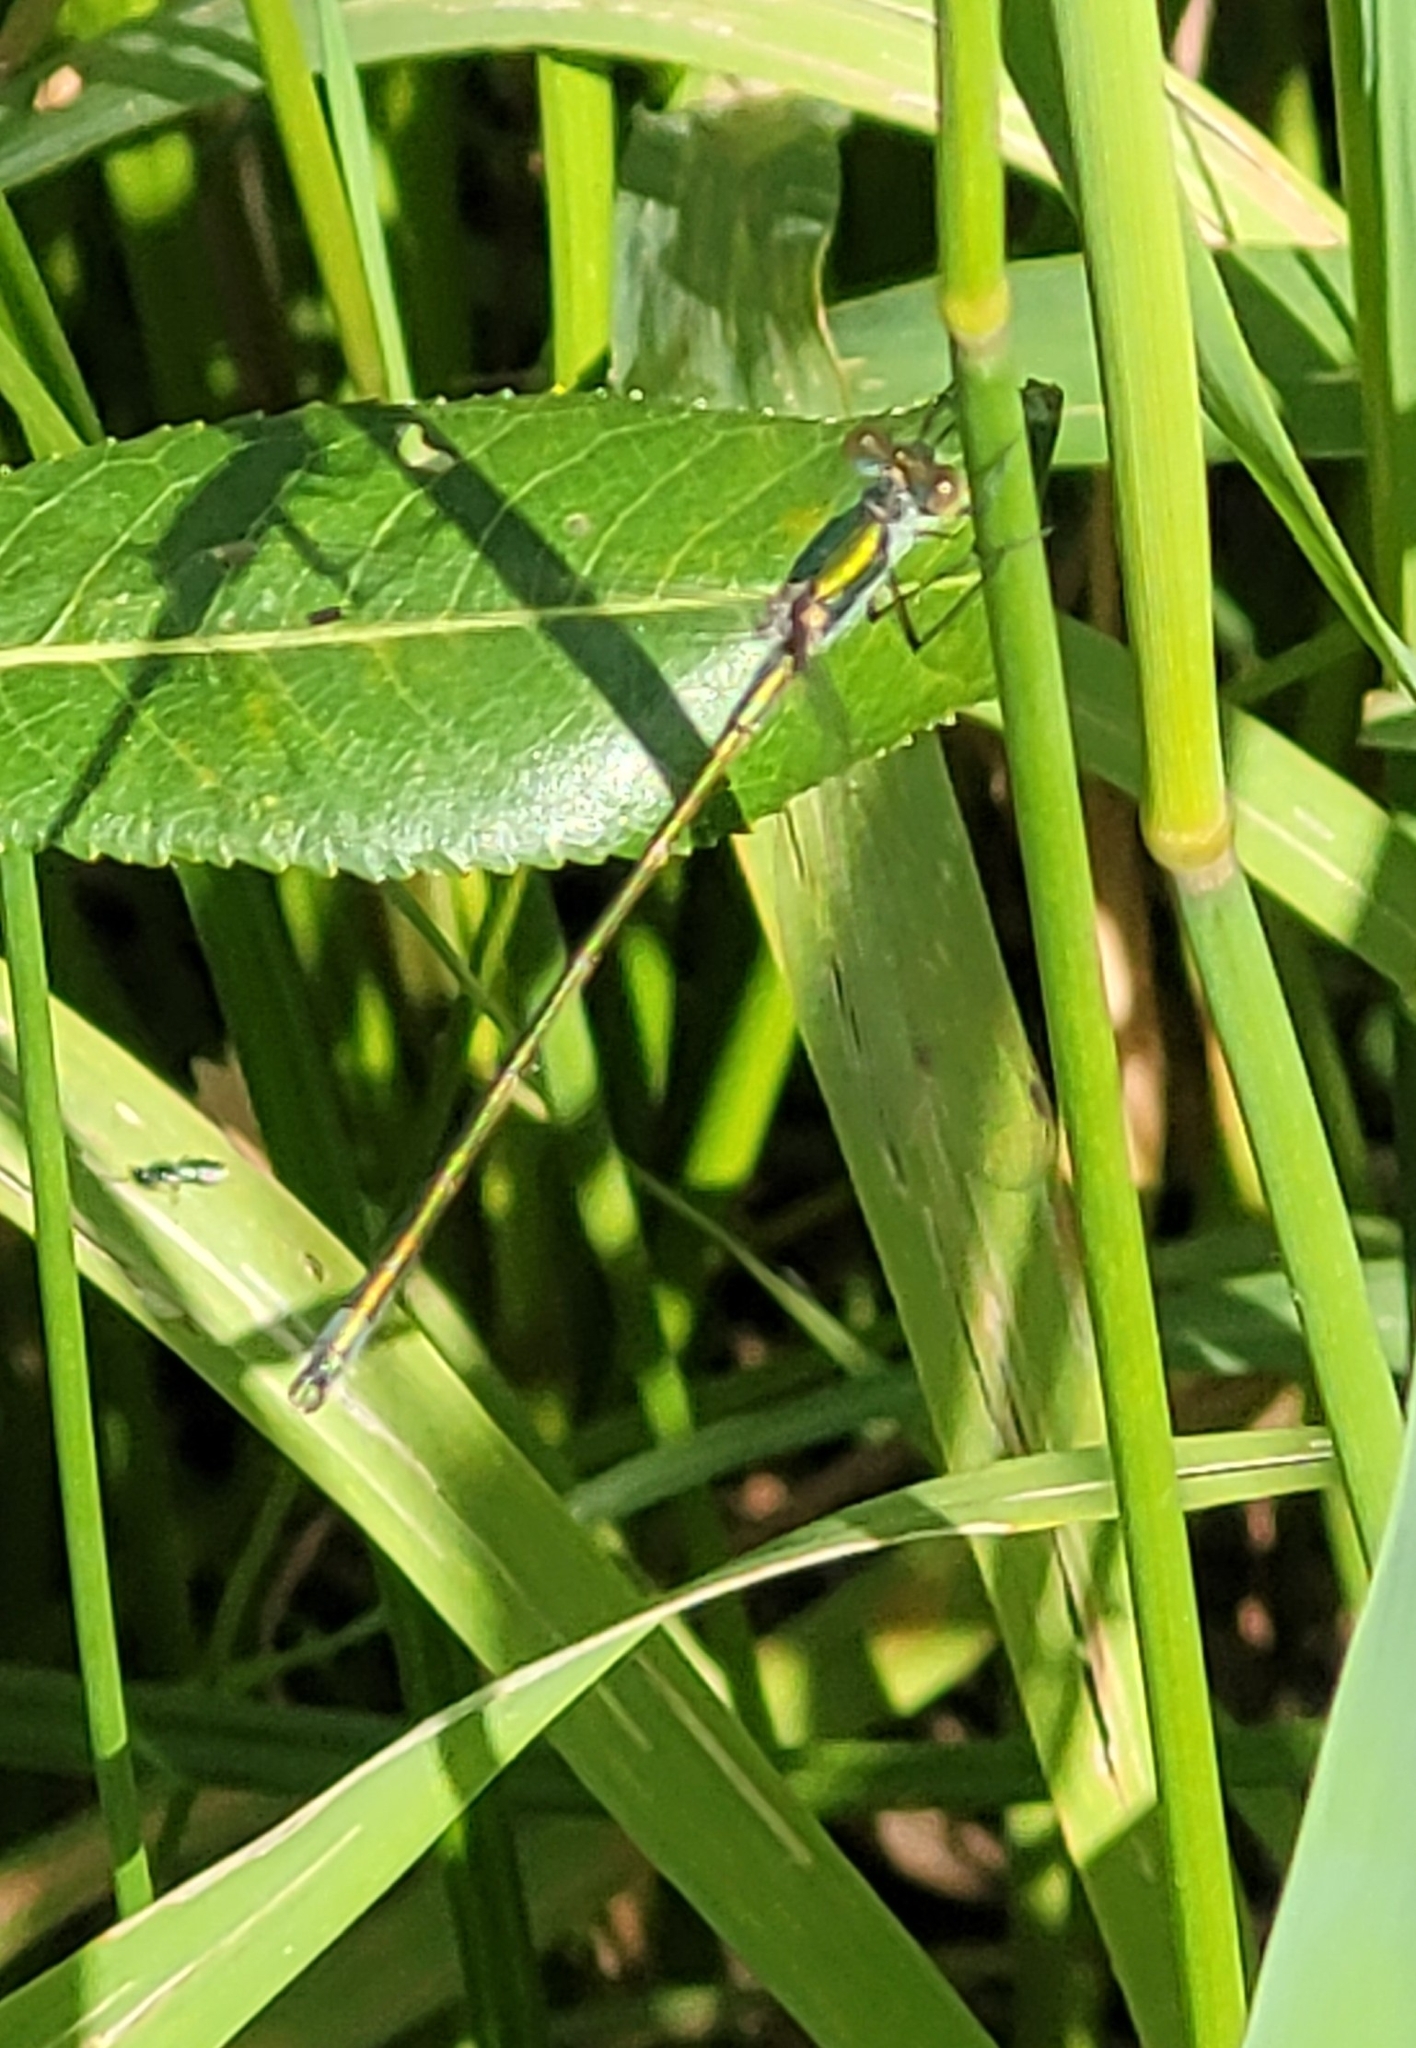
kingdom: Animalia
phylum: Arthropoda
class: Insecta
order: Odonata
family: Lestidae
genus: Lestes
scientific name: Lestes virens
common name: Small emerald spreadwing
